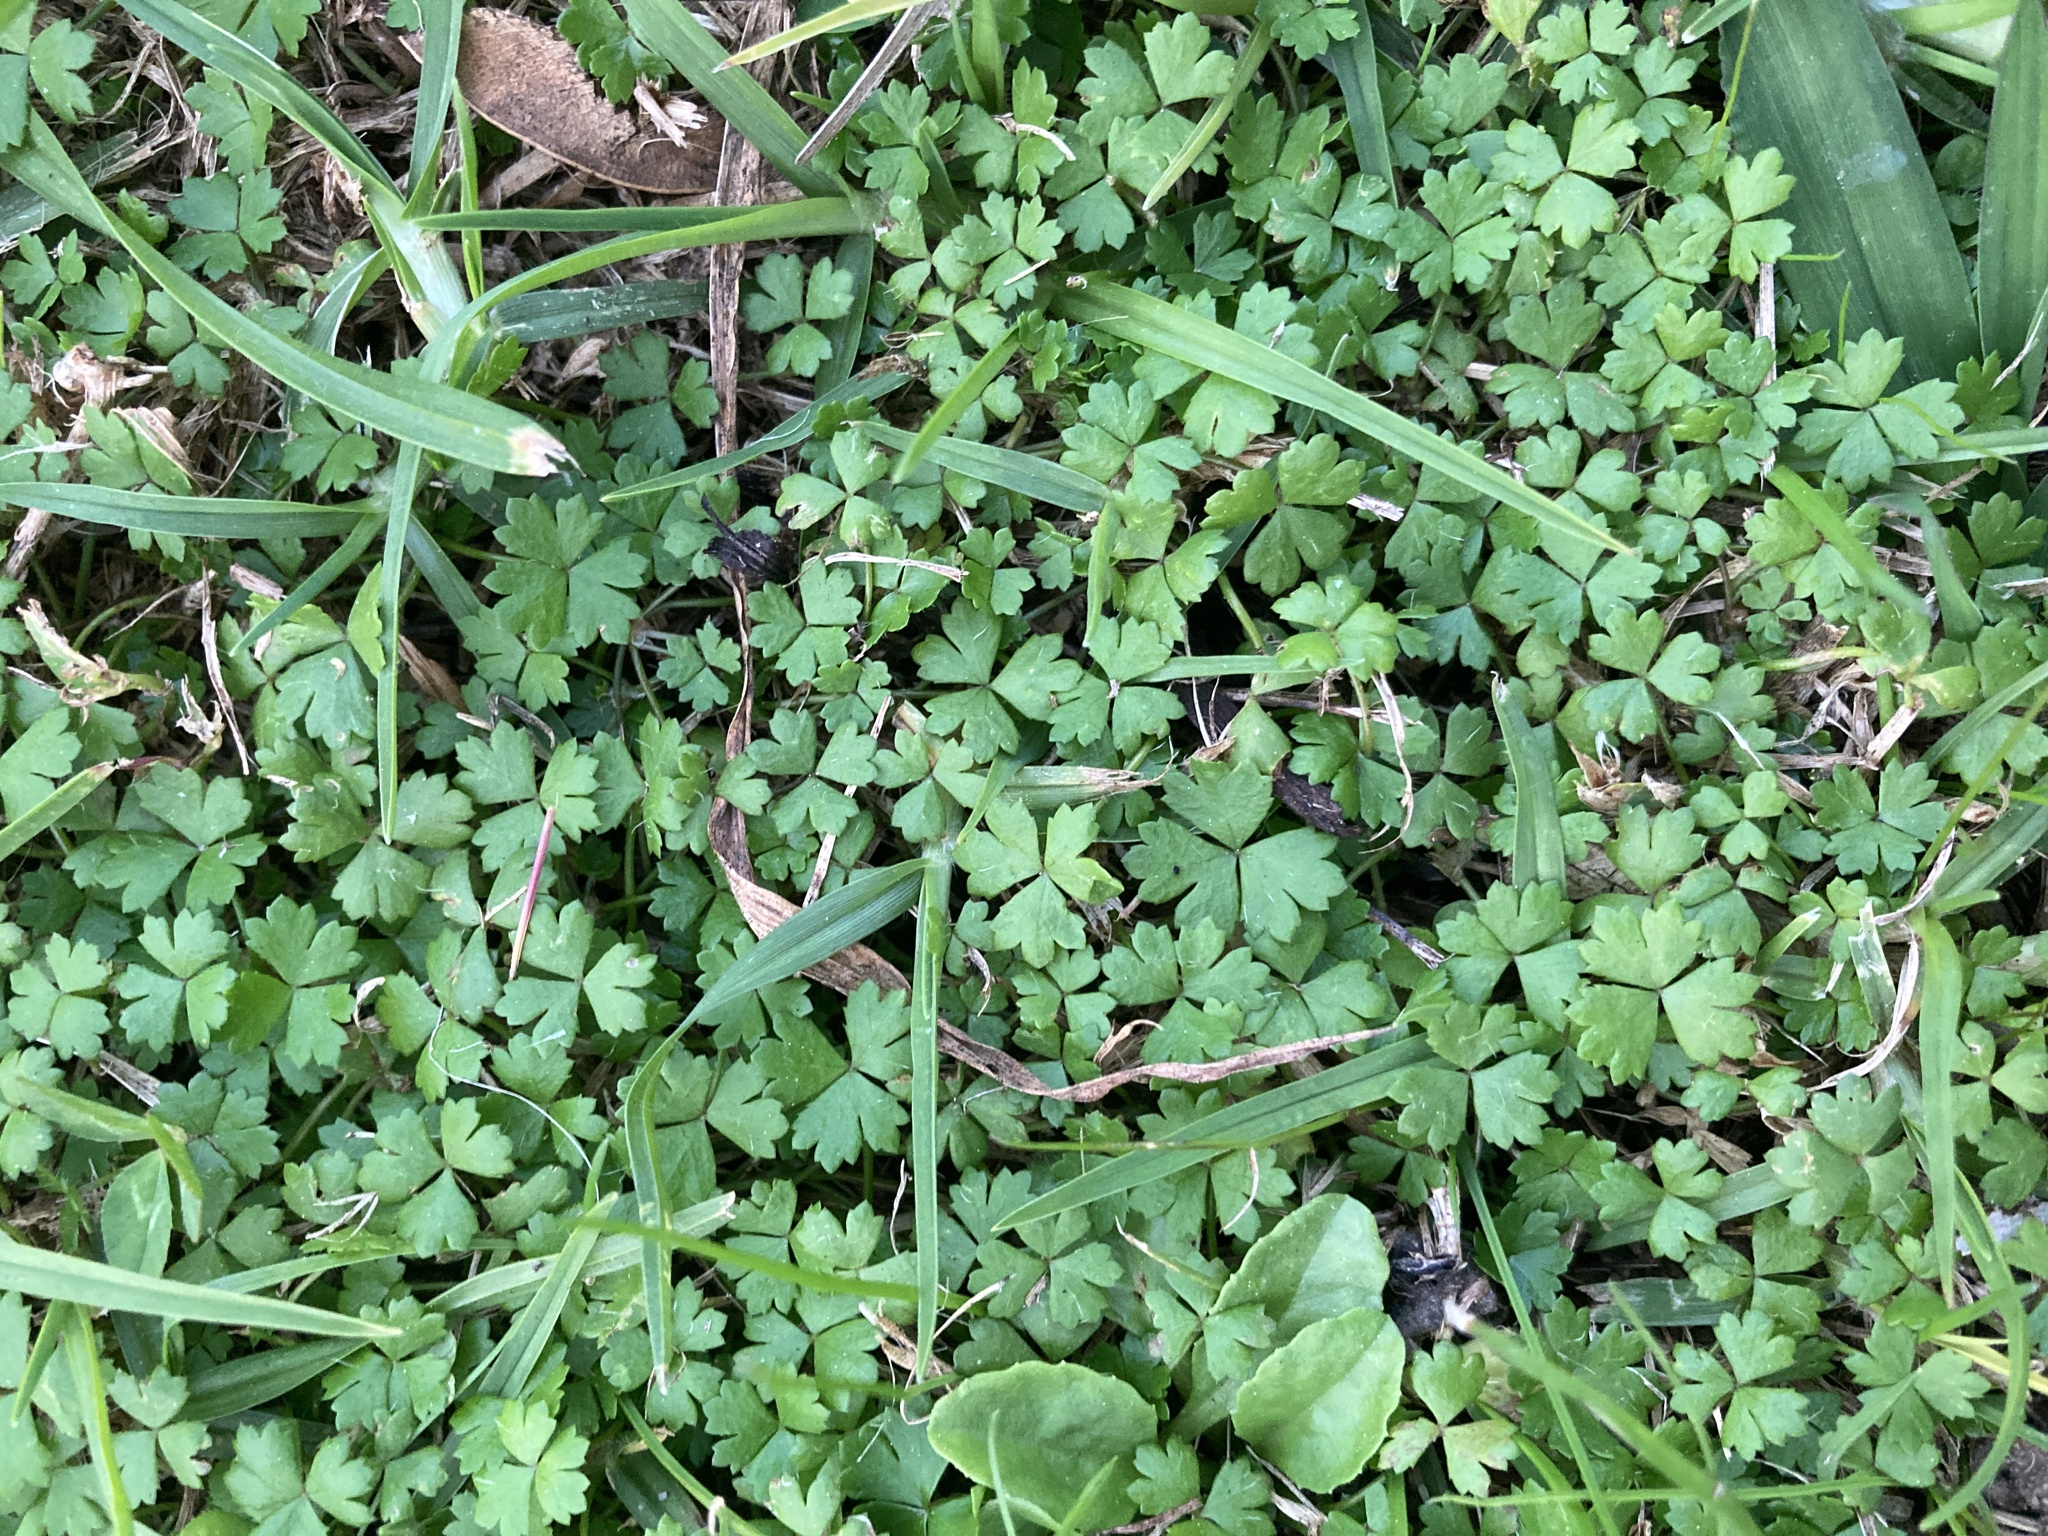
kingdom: Plantae
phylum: Tracheophyta
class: Magnoliopsida
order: Apiales
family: Araliaceae
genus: Hydrocotyle
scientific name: Hydrocotyle tripartita
